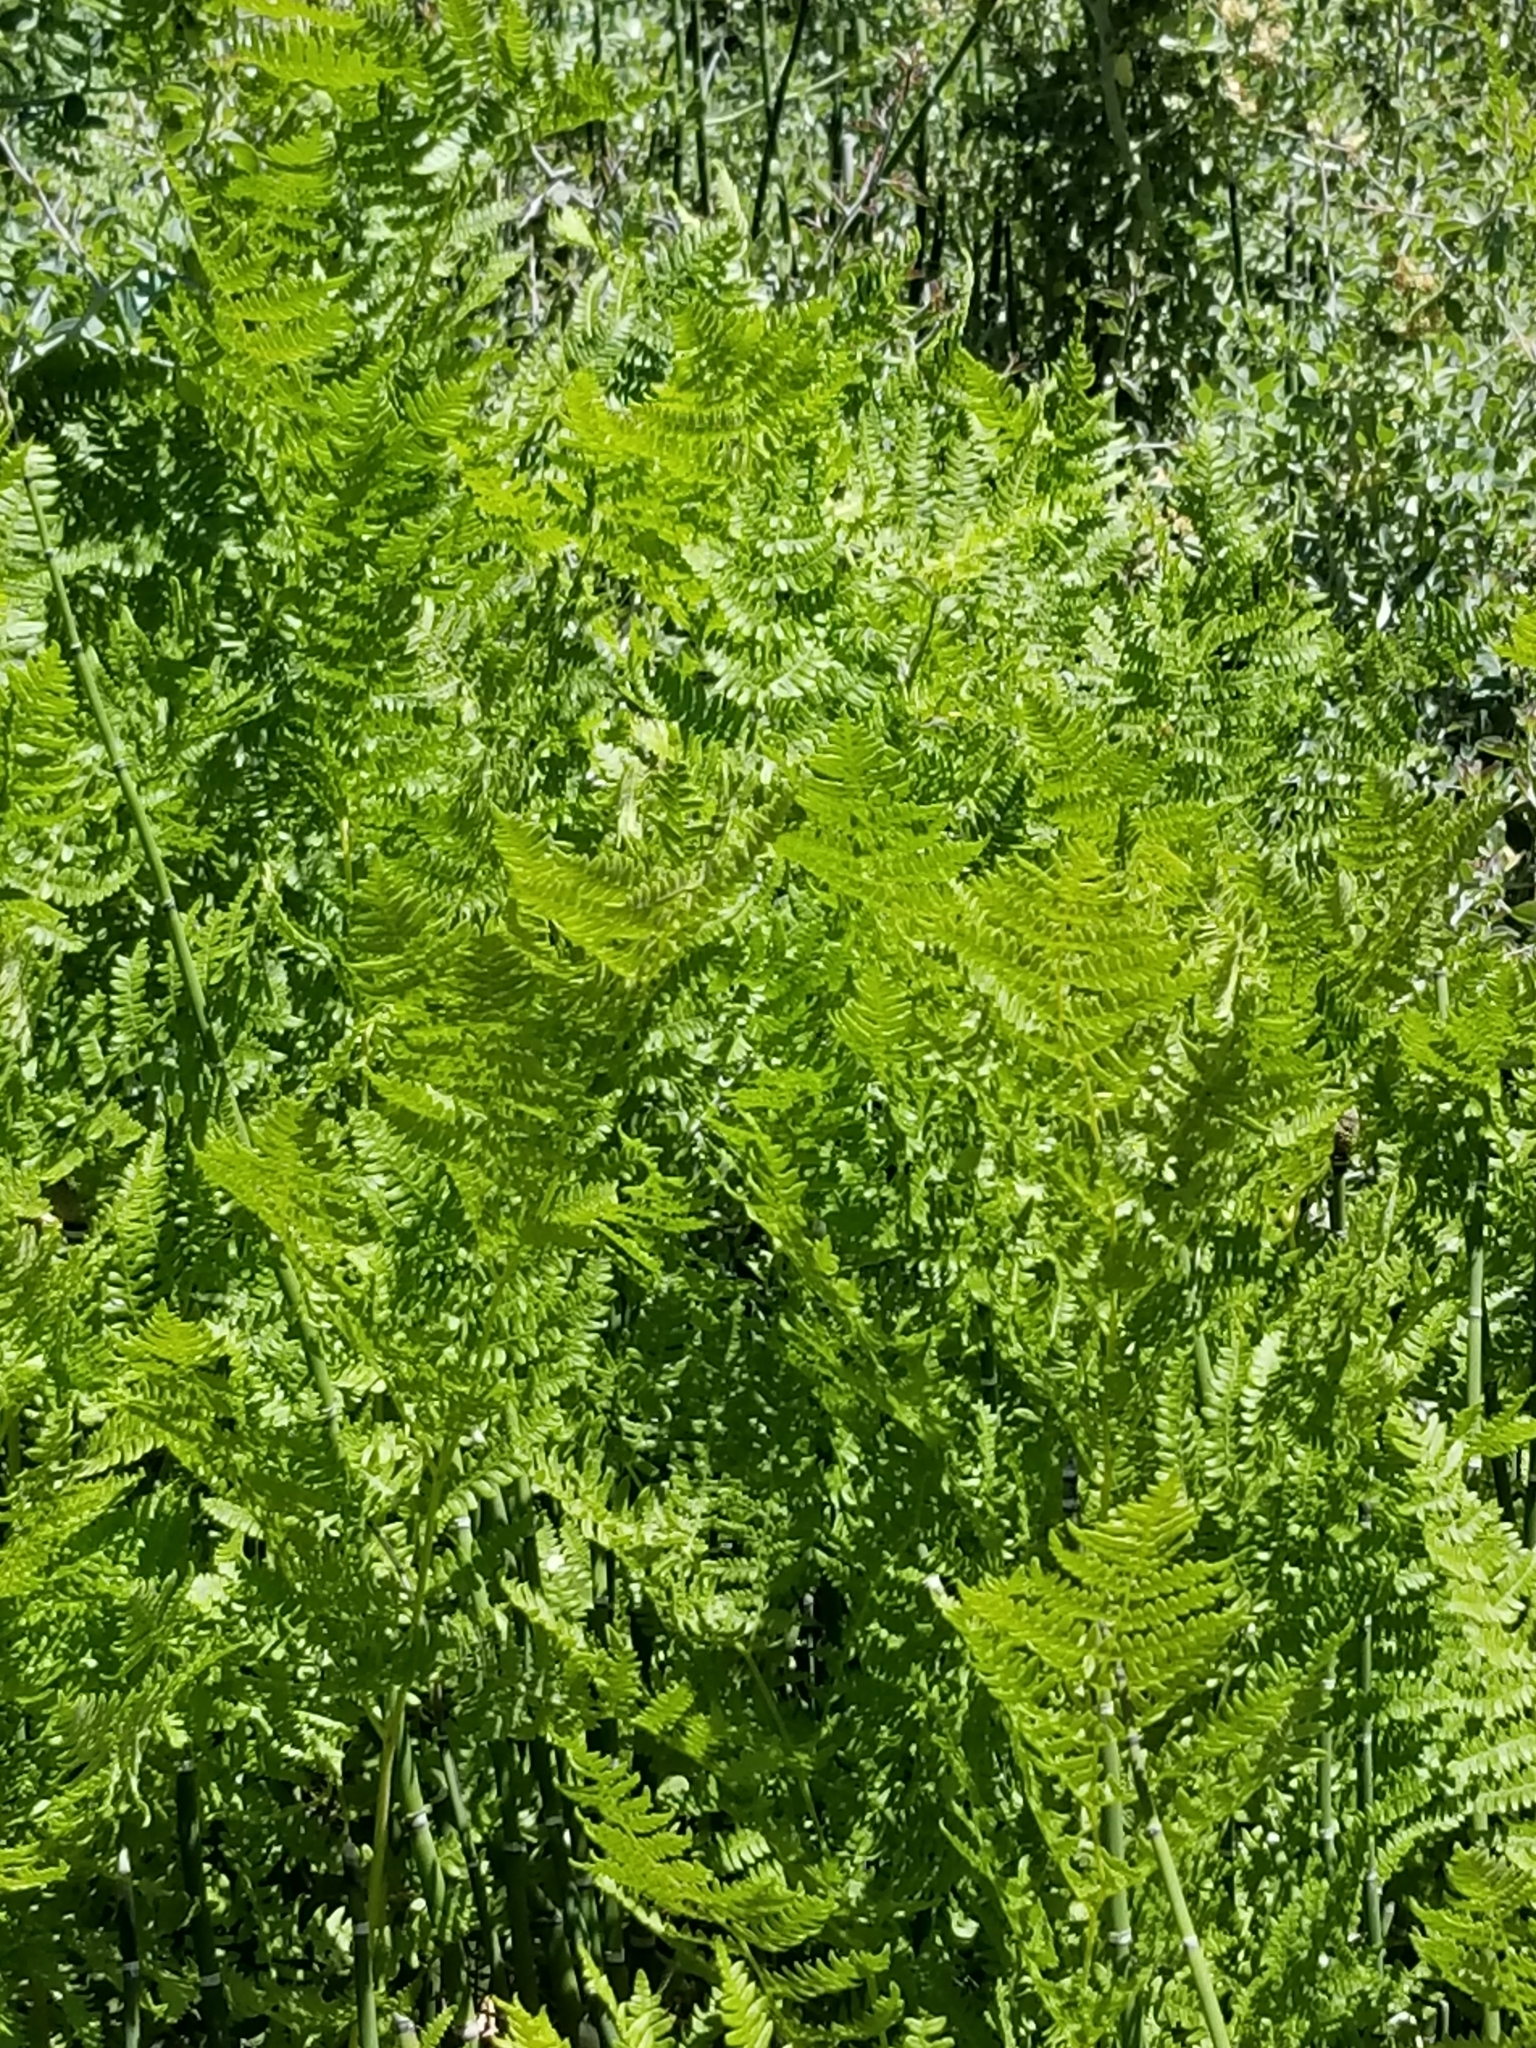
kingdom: Plantae
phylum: Tracheophyta
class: Polypodiopsida
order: Polypodiales
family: Dennstaedtiaceae
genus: Pteridium
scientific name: Pteridium aquilinum
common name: Bracken
